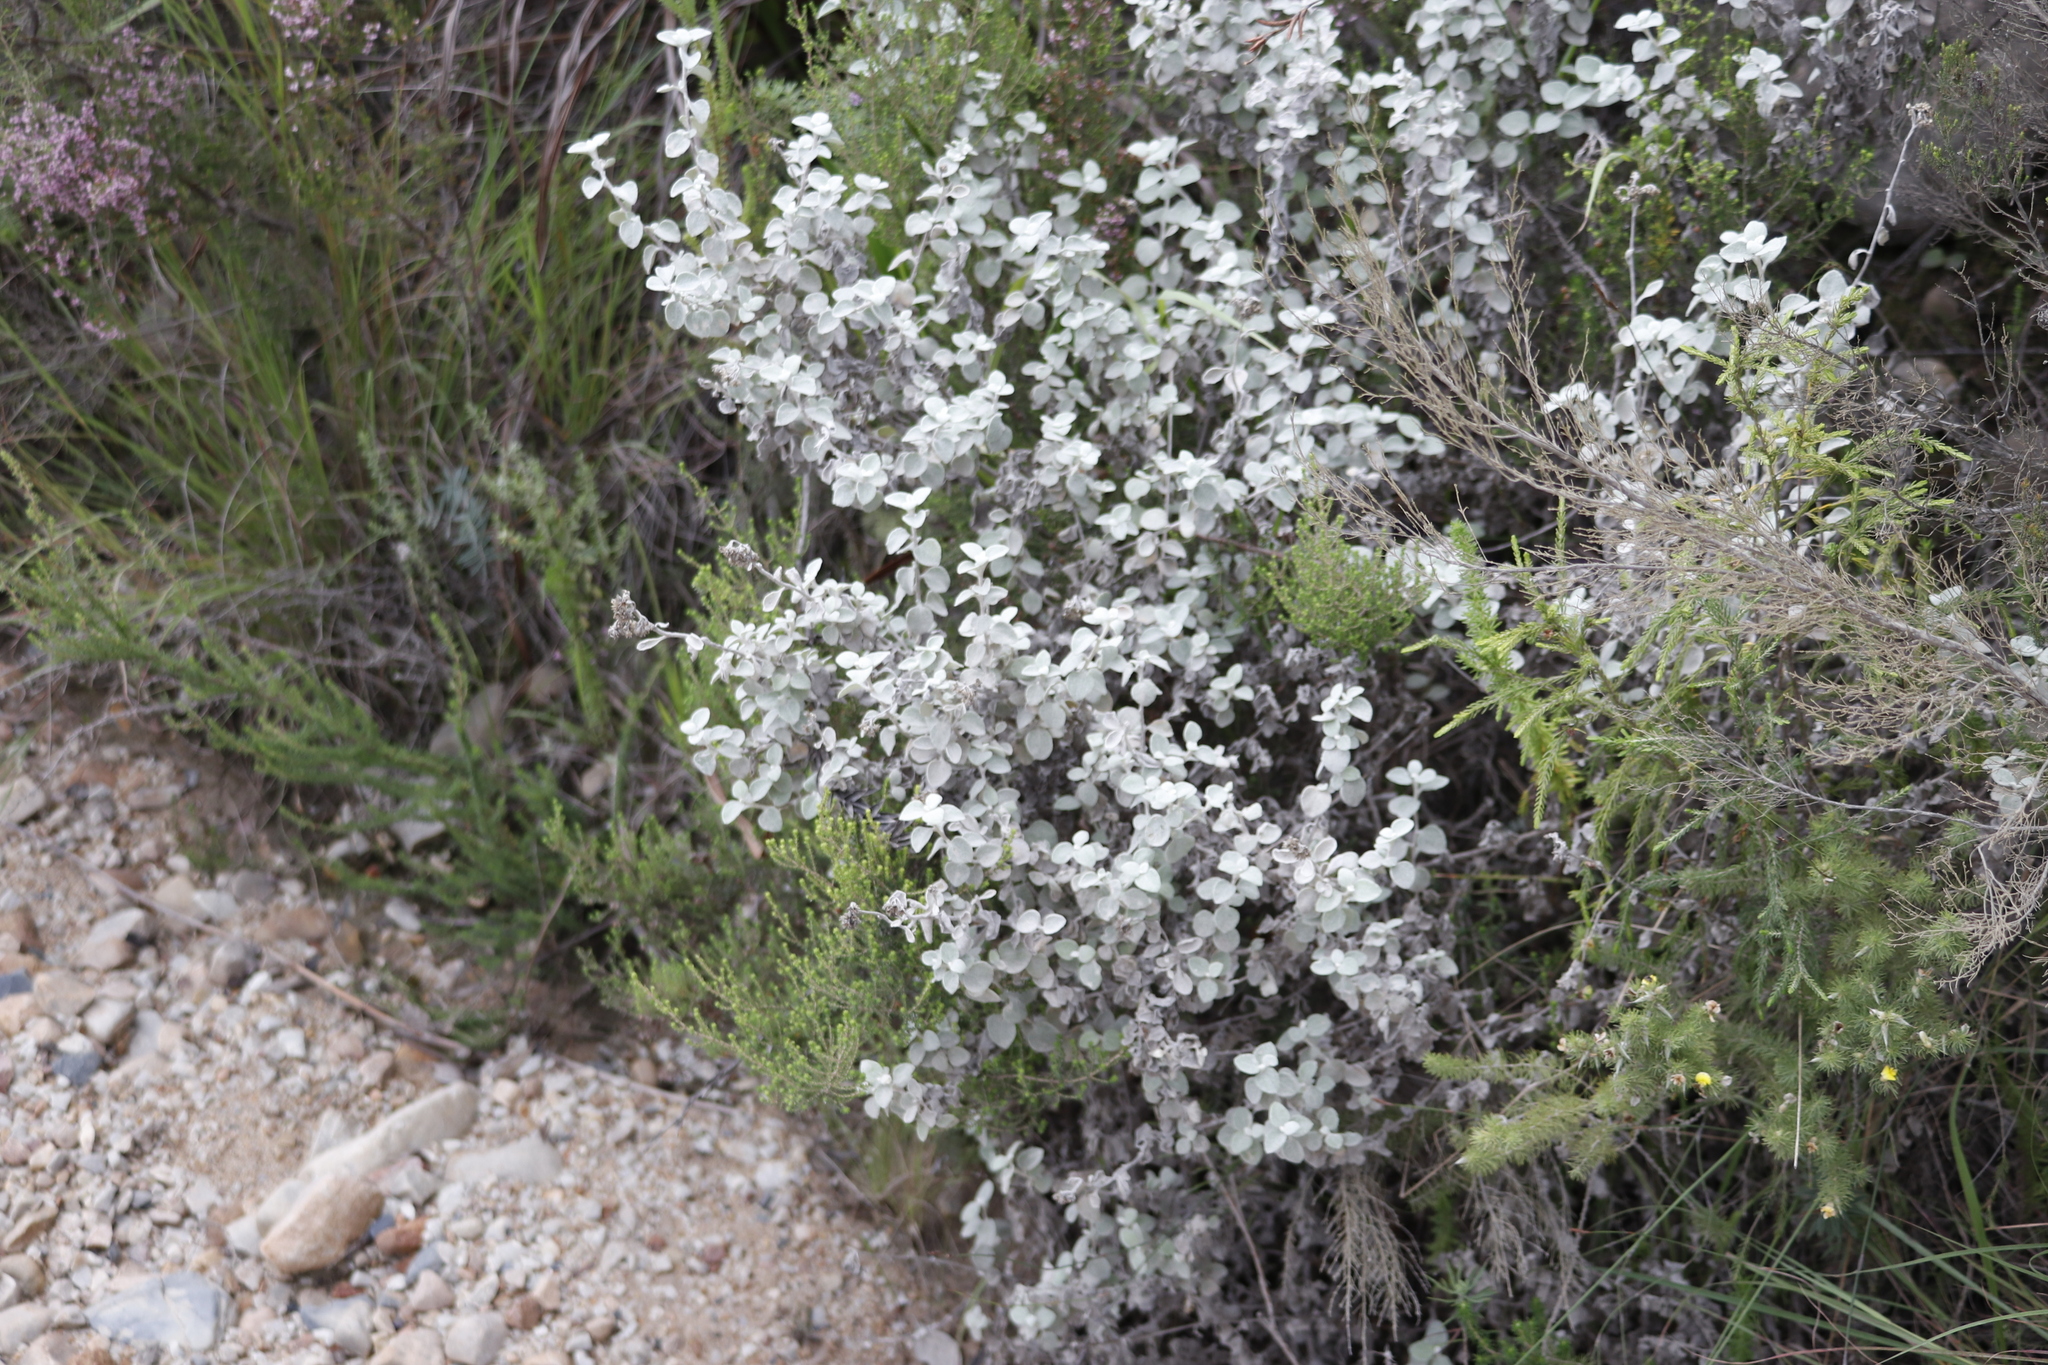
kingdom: Plantae
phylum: Tracheophyta
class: Magnoliopsida
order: Asterales
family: Asteraceae
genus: Helichrysum
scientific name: Helichrysum petiolare
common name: Licorice-plant
